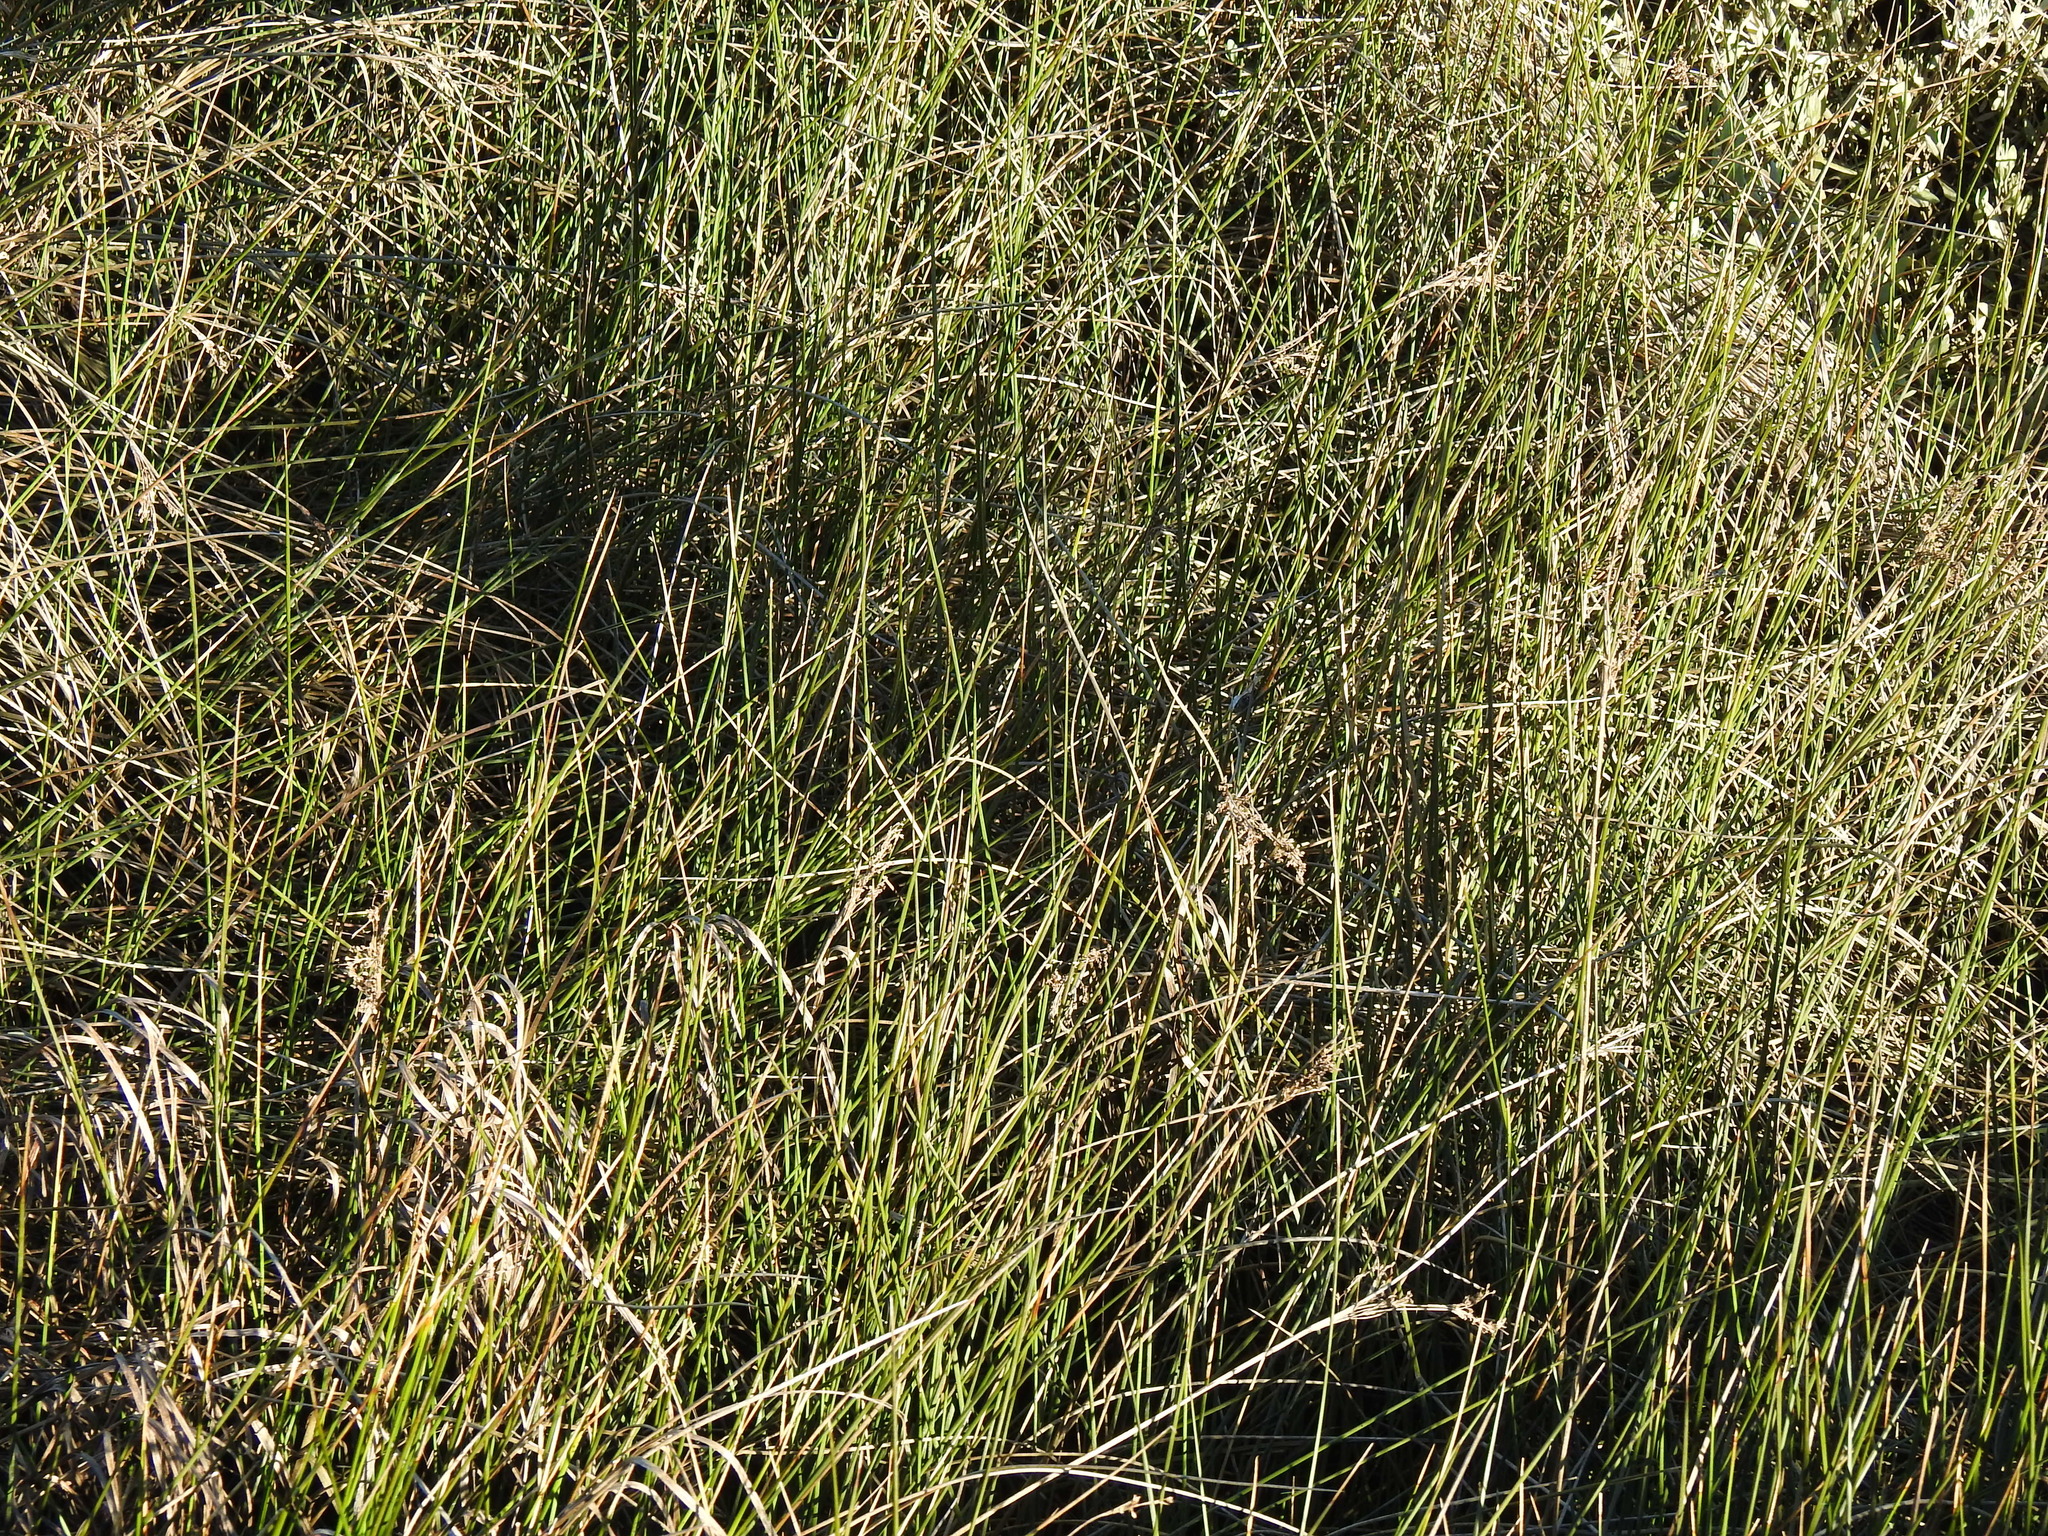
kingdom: Plantae
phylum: Tracheophyta
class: Liliopsida
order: Poales
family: Juncaceae
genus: Juncus
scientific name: Juncus maritimus
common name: Sea rush
